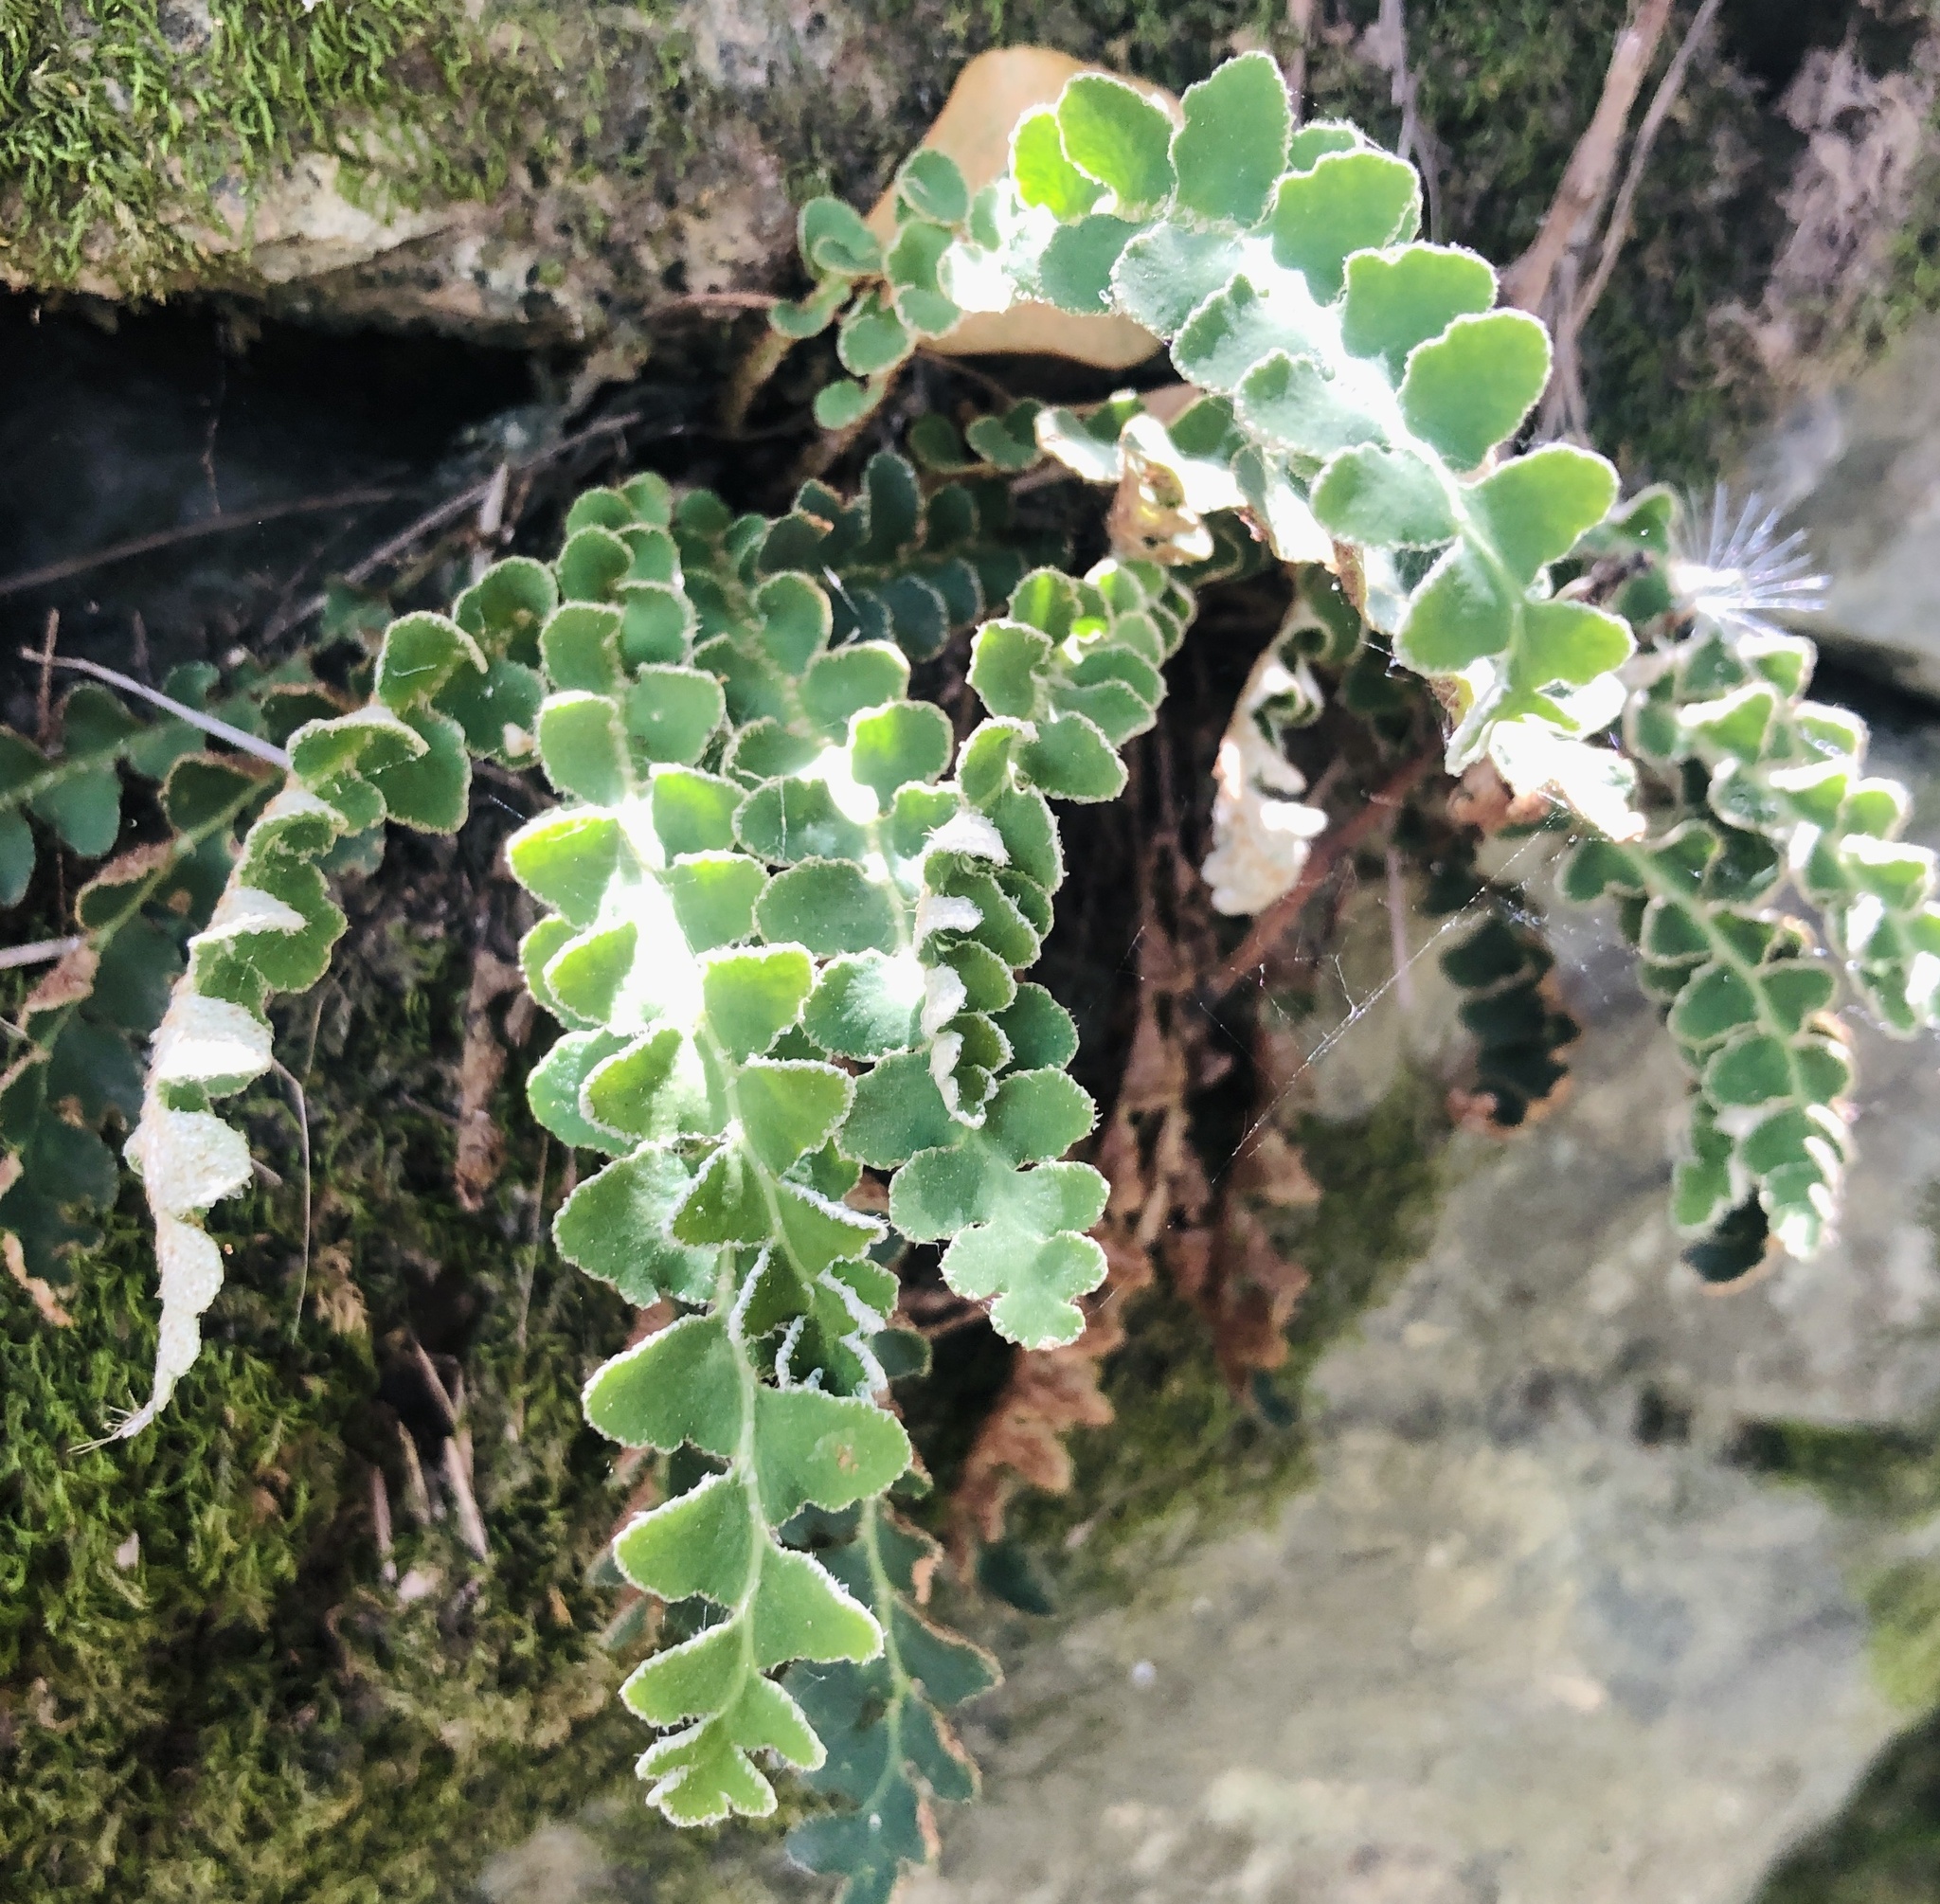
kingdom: Plantae
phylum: Tracheophyta
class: Polypodiopsida
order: Polypodiales
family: Aspleniaceae
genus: Asplenium
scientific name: Asplenium ceterach
